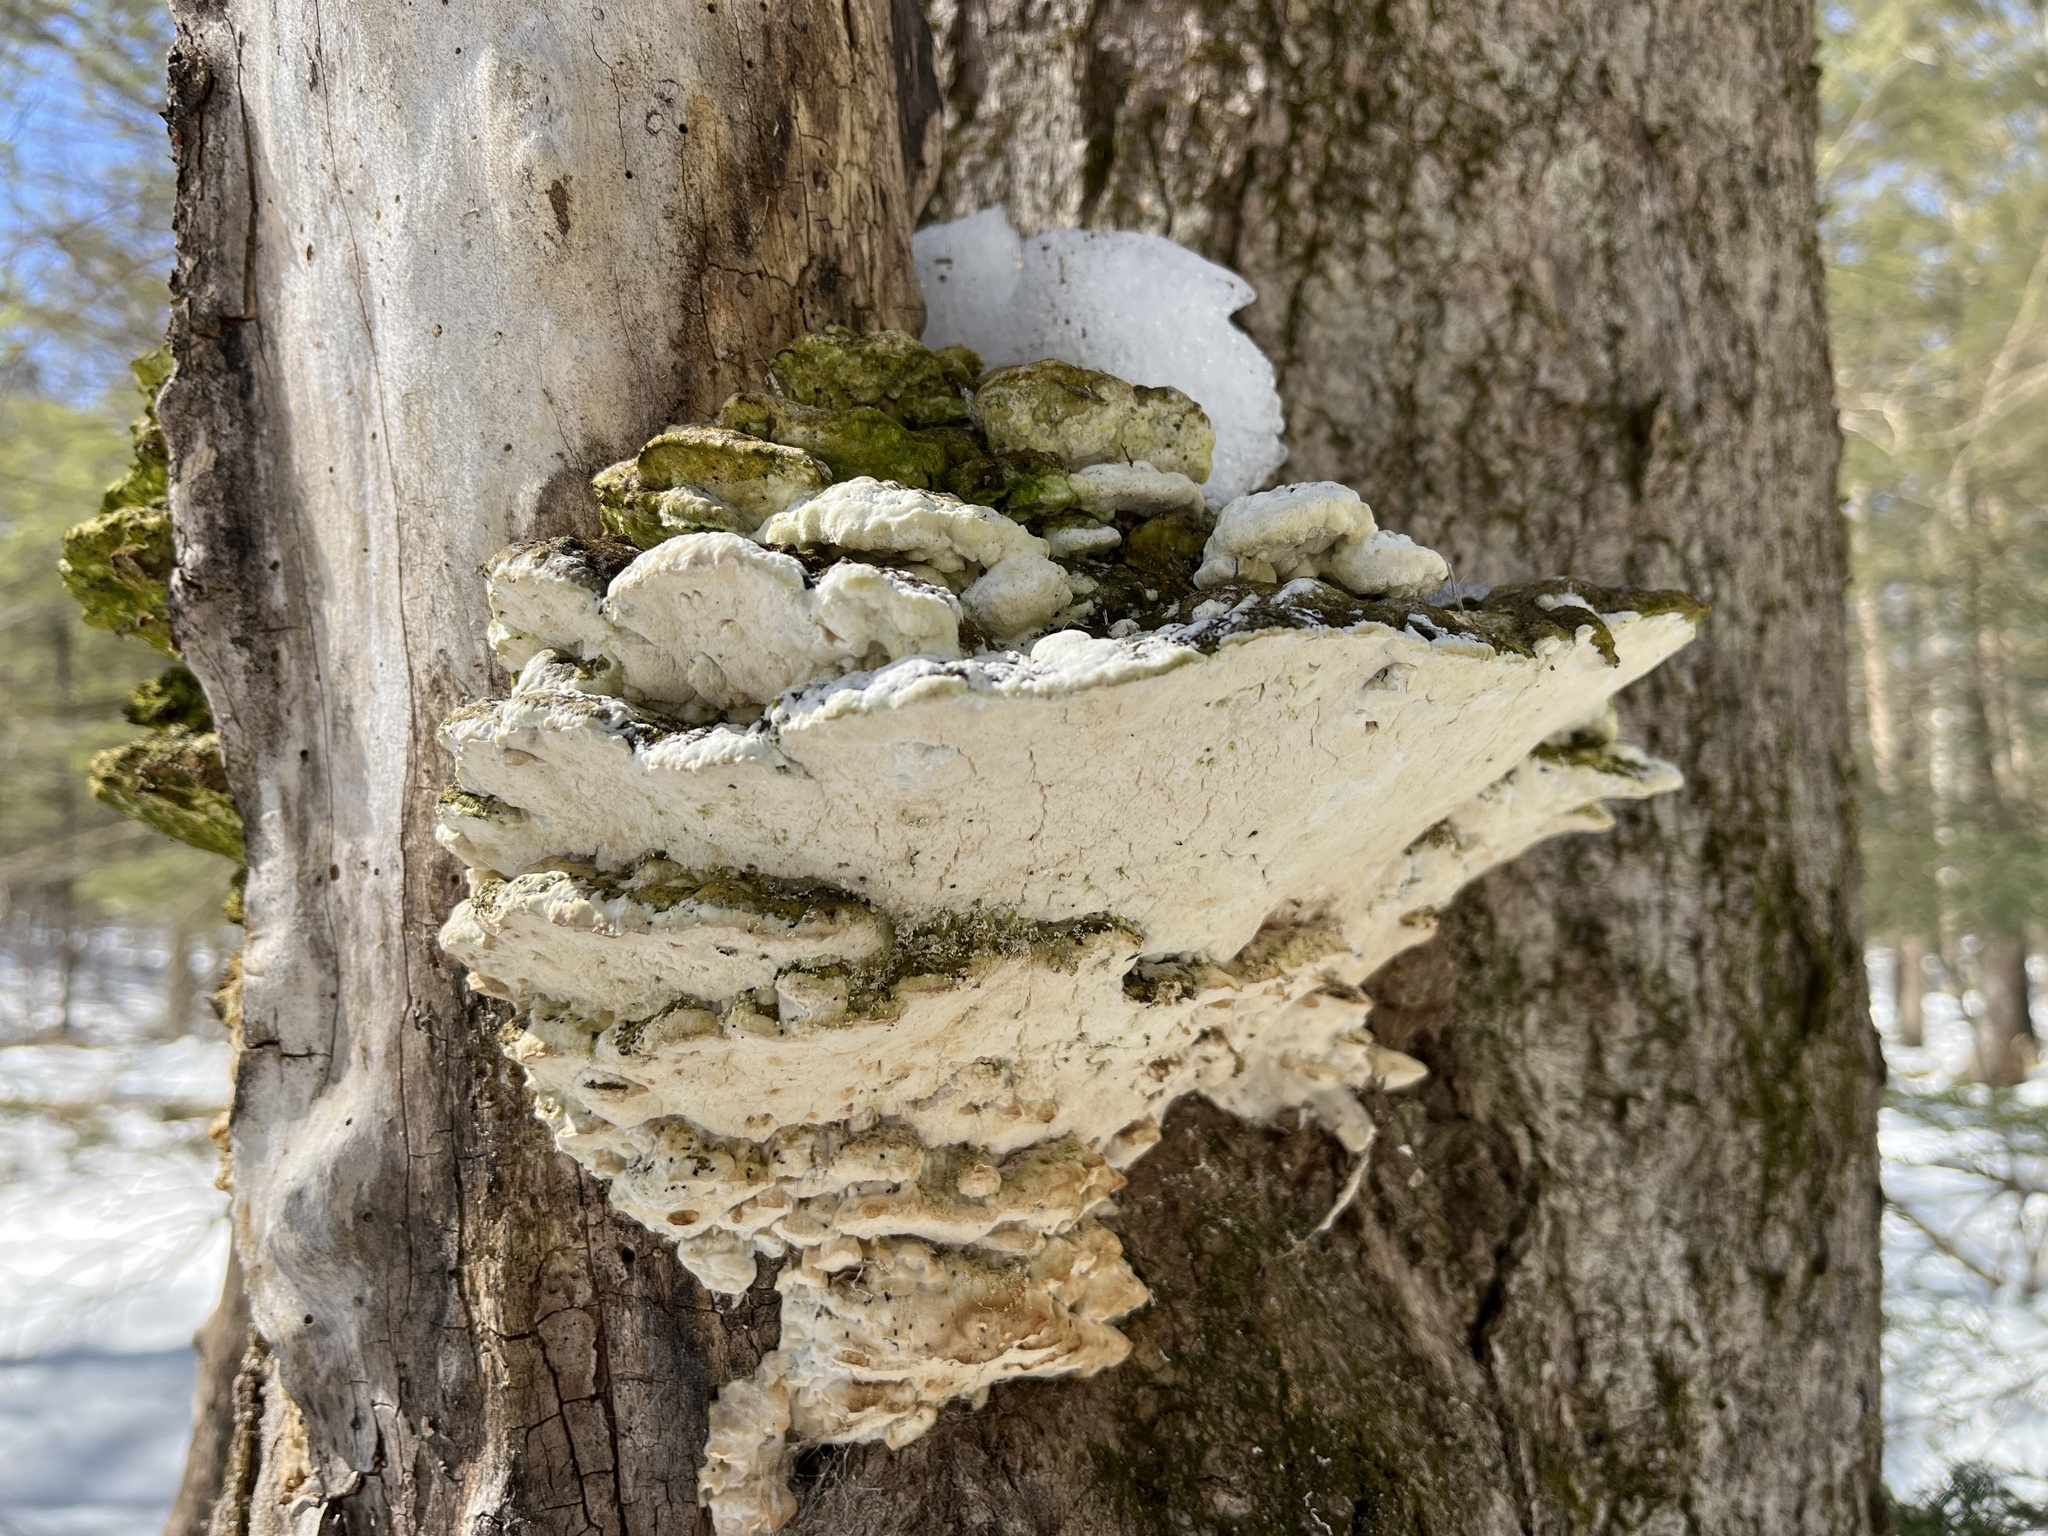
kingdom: Fungi
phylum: Basidiomycota
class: Agaricomycetes
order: Hymenochaetales
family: Oxyporaceae
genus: Oxyporus
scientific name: Oxyporus populinus
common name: Poplar bracket
